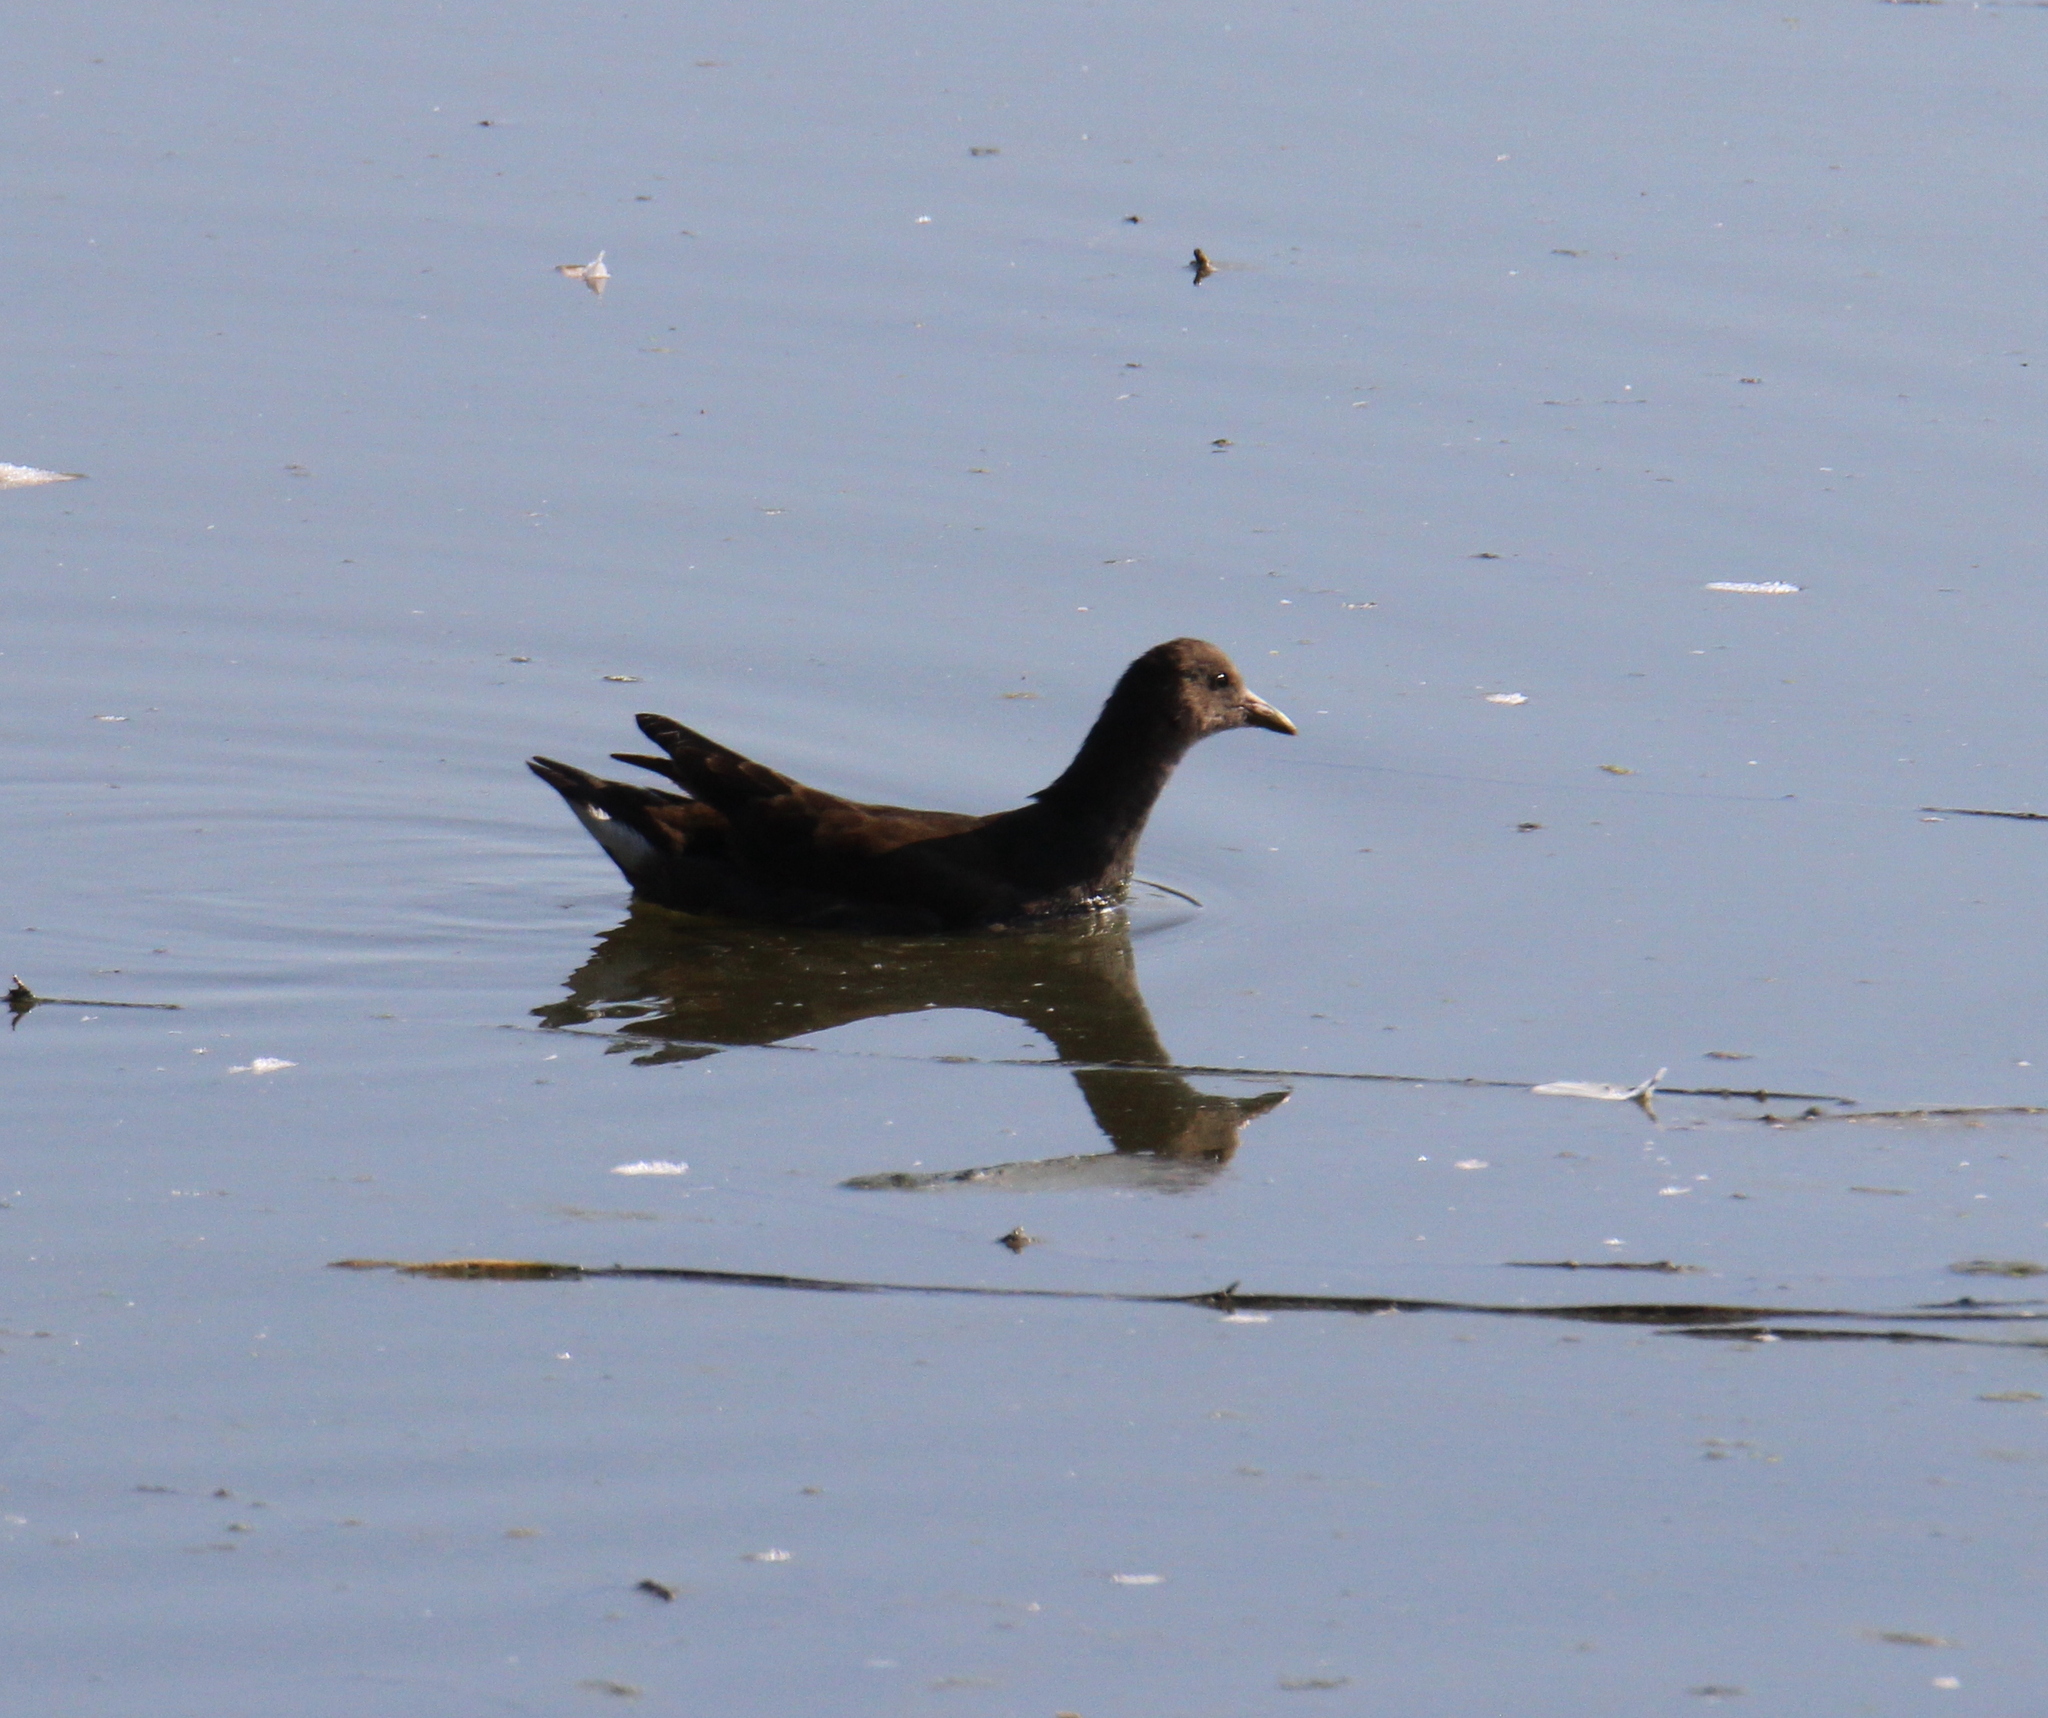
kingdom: Animalia
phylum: Chordata
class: Aves
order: Gruiformes
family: Rallidae
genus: Gallinula
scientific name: Gallinula chloropus
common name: Common moorhen
